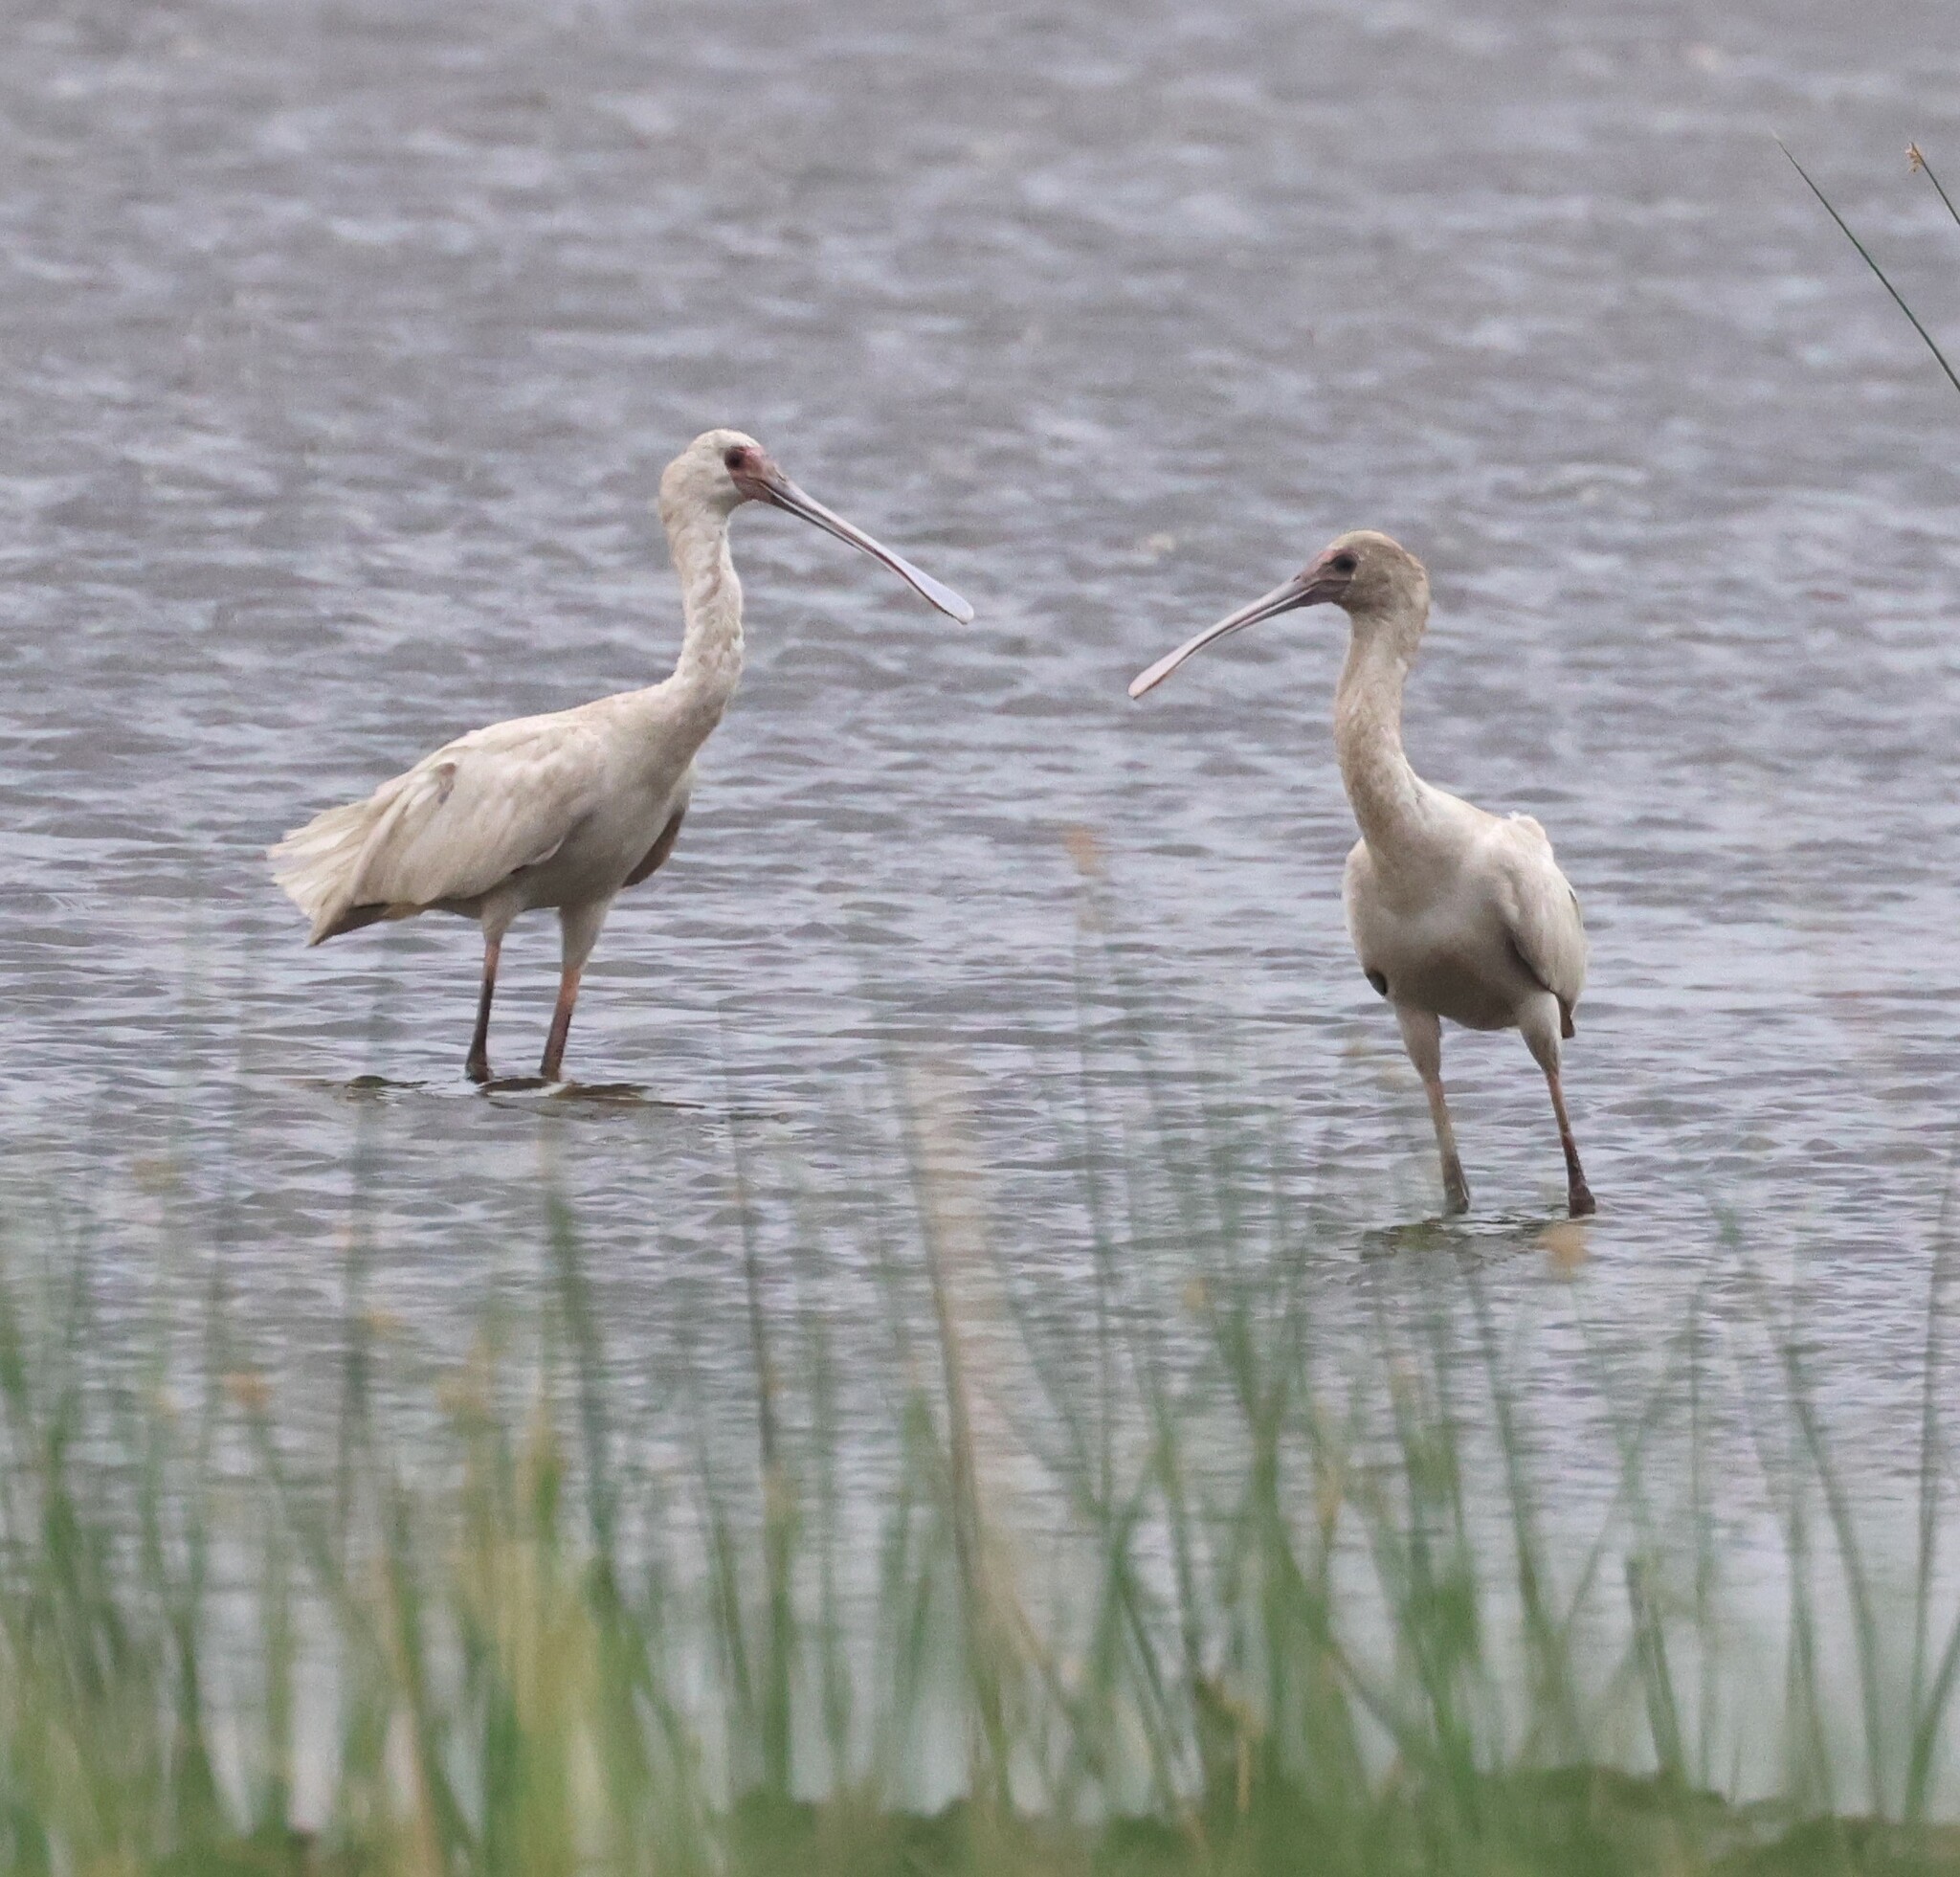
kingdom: Animalia
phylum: Chordata
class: Aves
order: Pelecaniformes
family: Threskiornithidae
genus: Platalea
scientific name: Platalea alba
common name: African spoonbill
